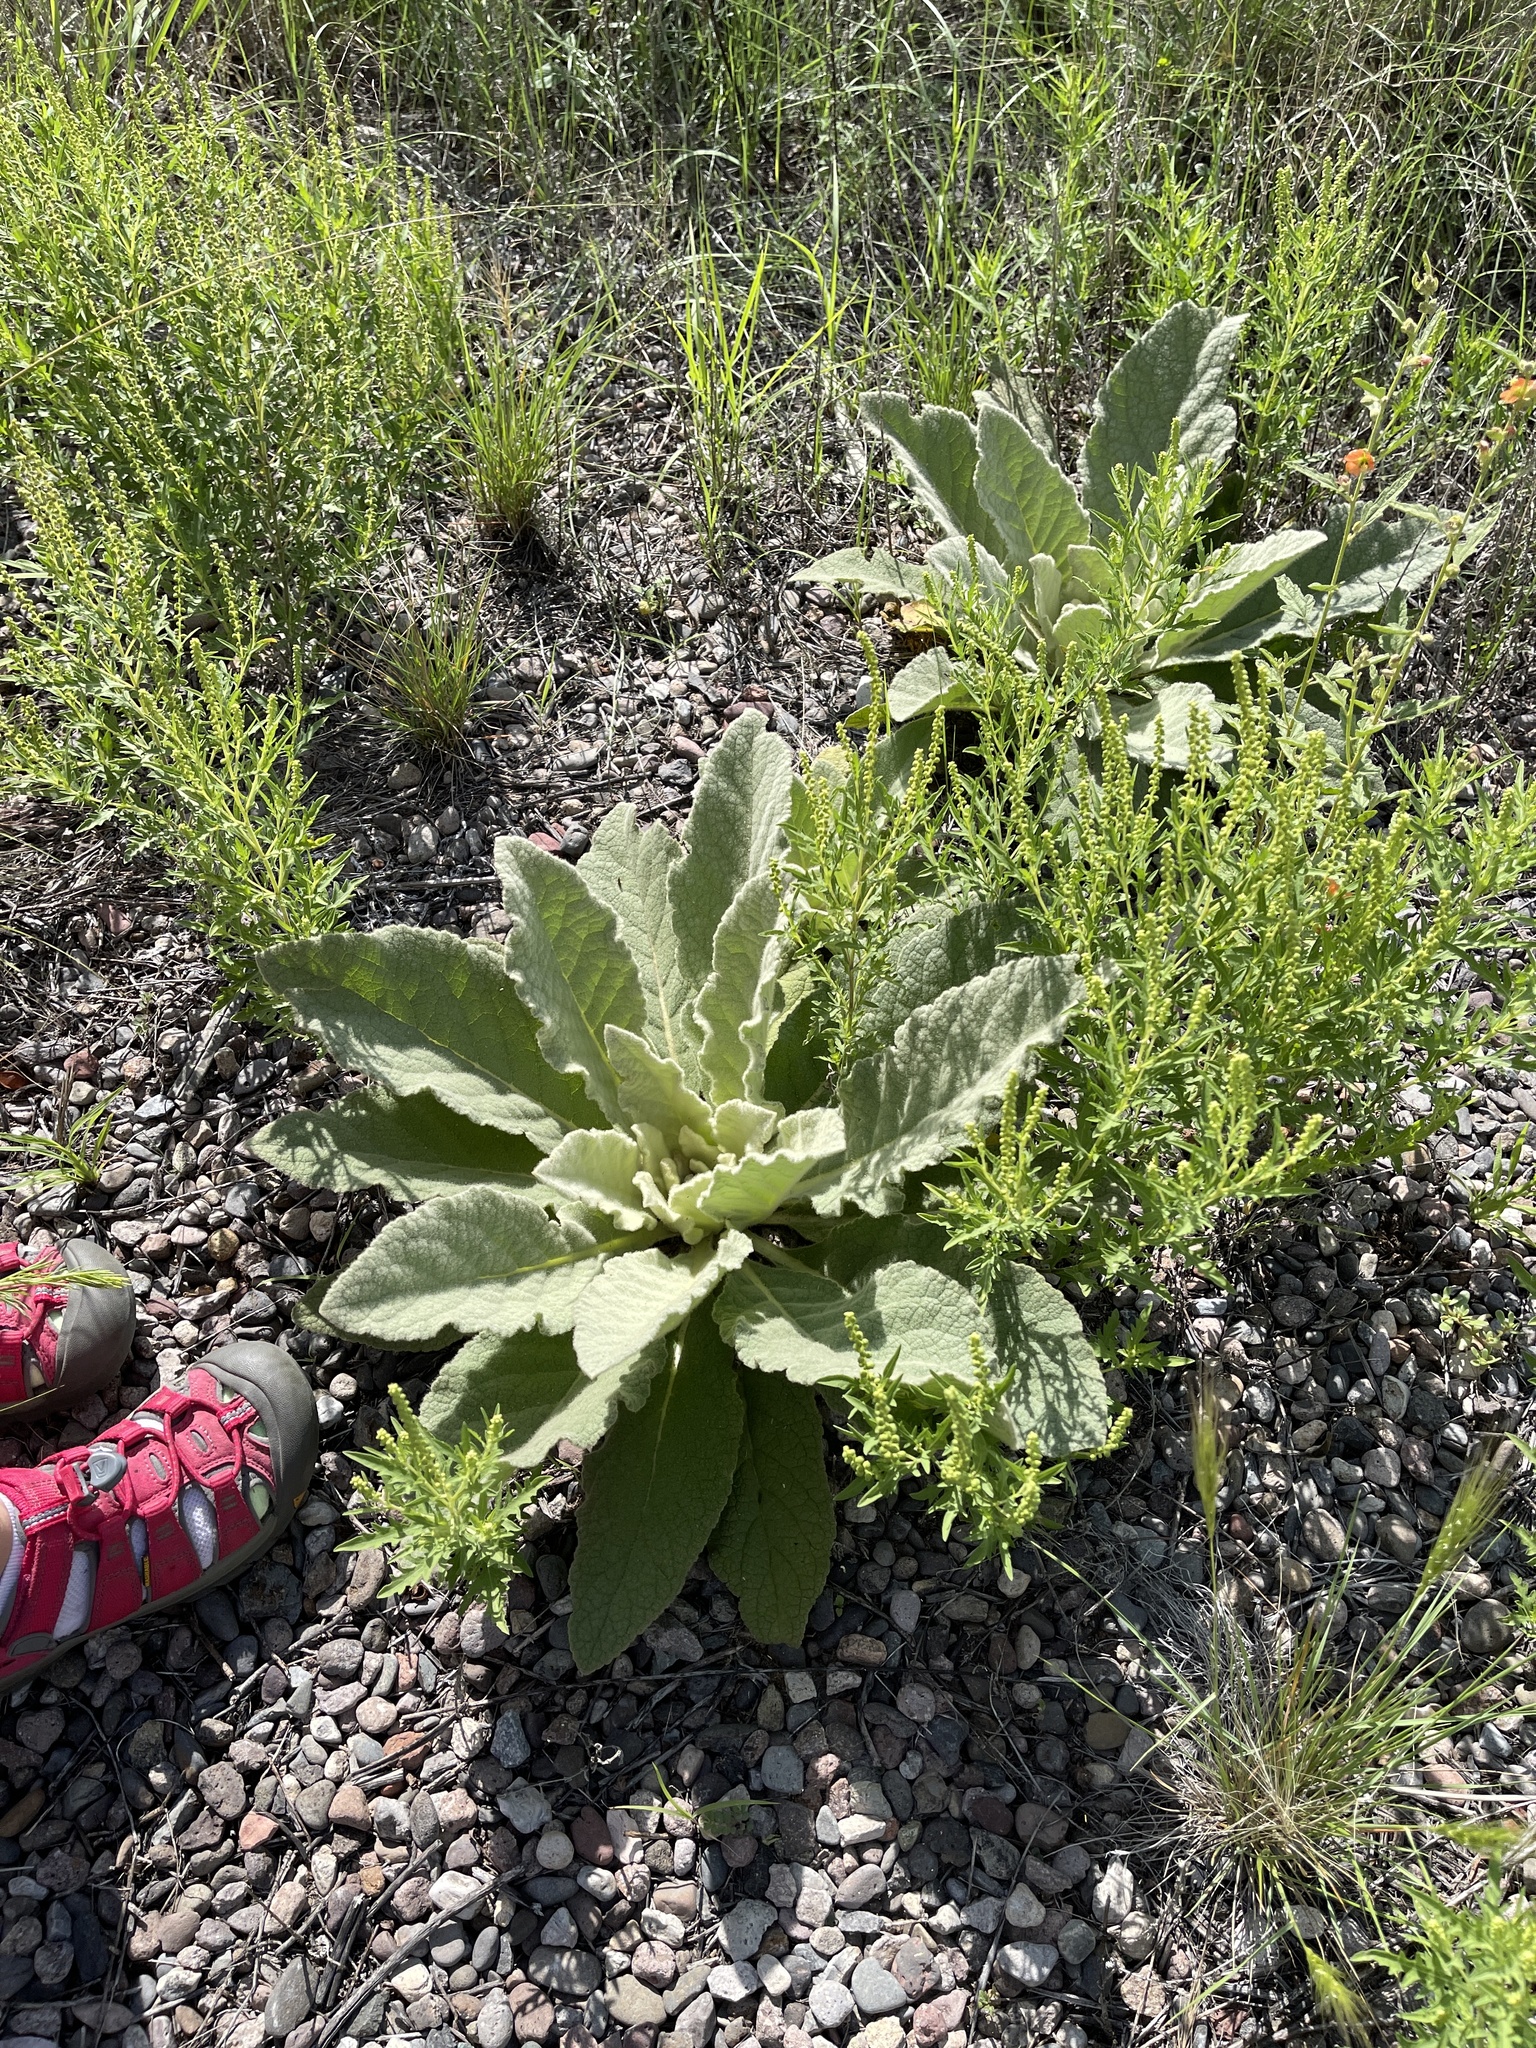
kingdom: Plantae
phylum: Tracheophyta
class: Magnoliopsida
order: Lamiales
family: Scrophulariaceae
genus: Verbascum
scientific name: Verbascum thapsus
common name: Common mullein
